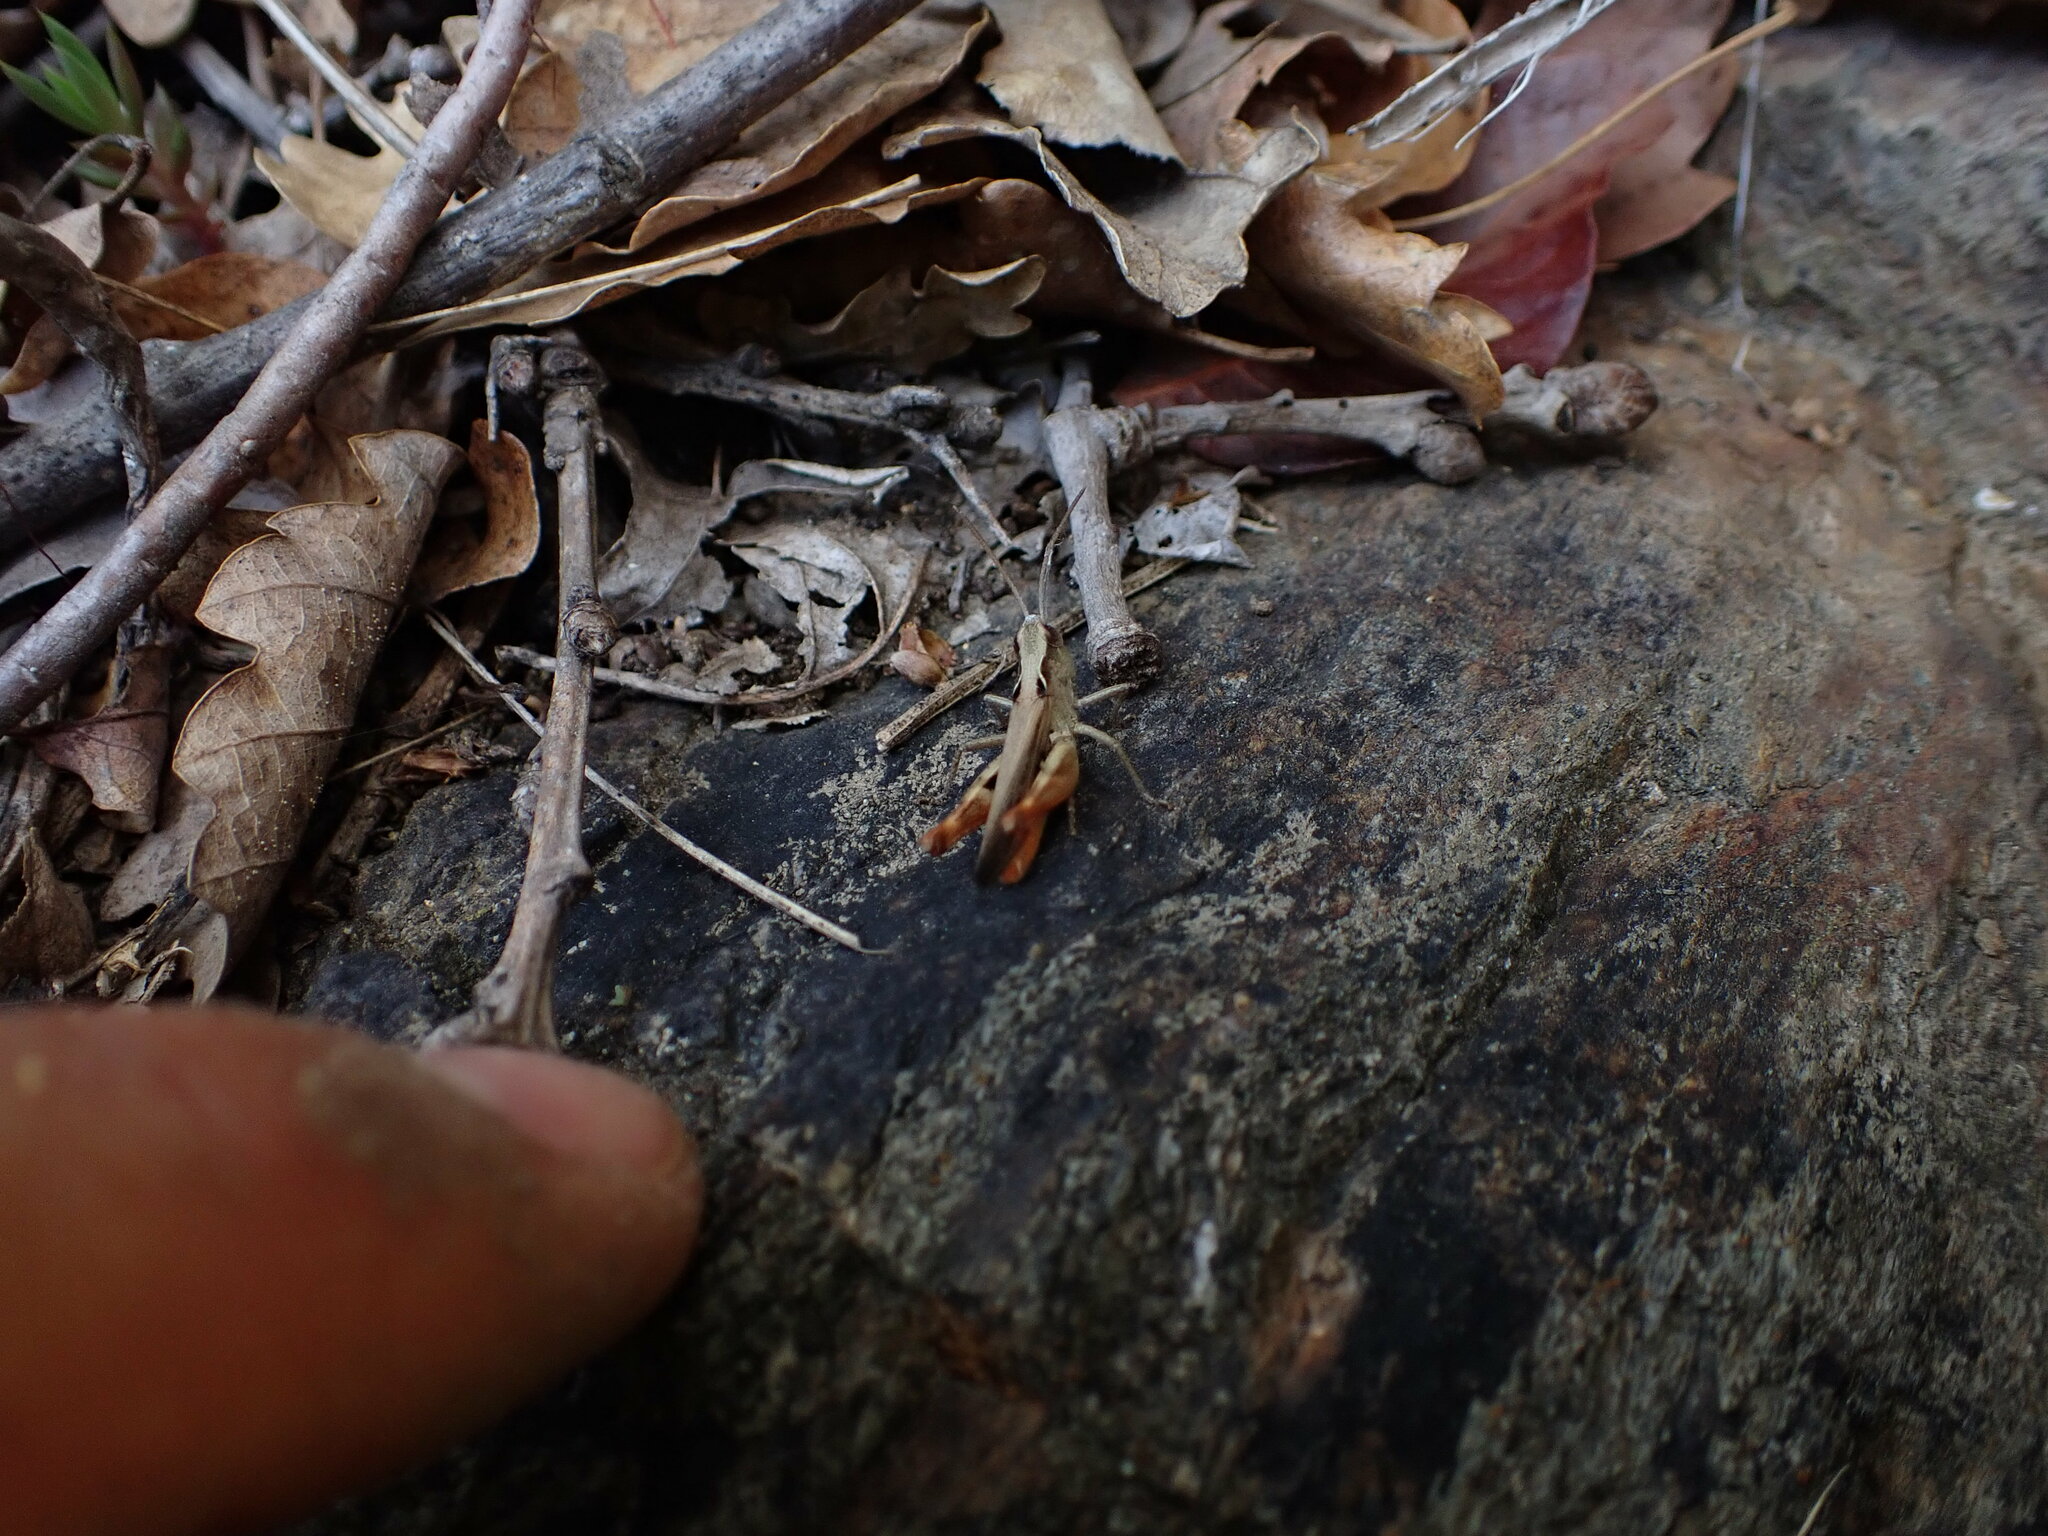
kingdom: Animalia
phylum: Arthropoda
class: Insecta
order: Orthoptera
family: Acrididae
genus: Chorthippus
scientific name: Chorthippus vagans
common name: Heath grasshopper
